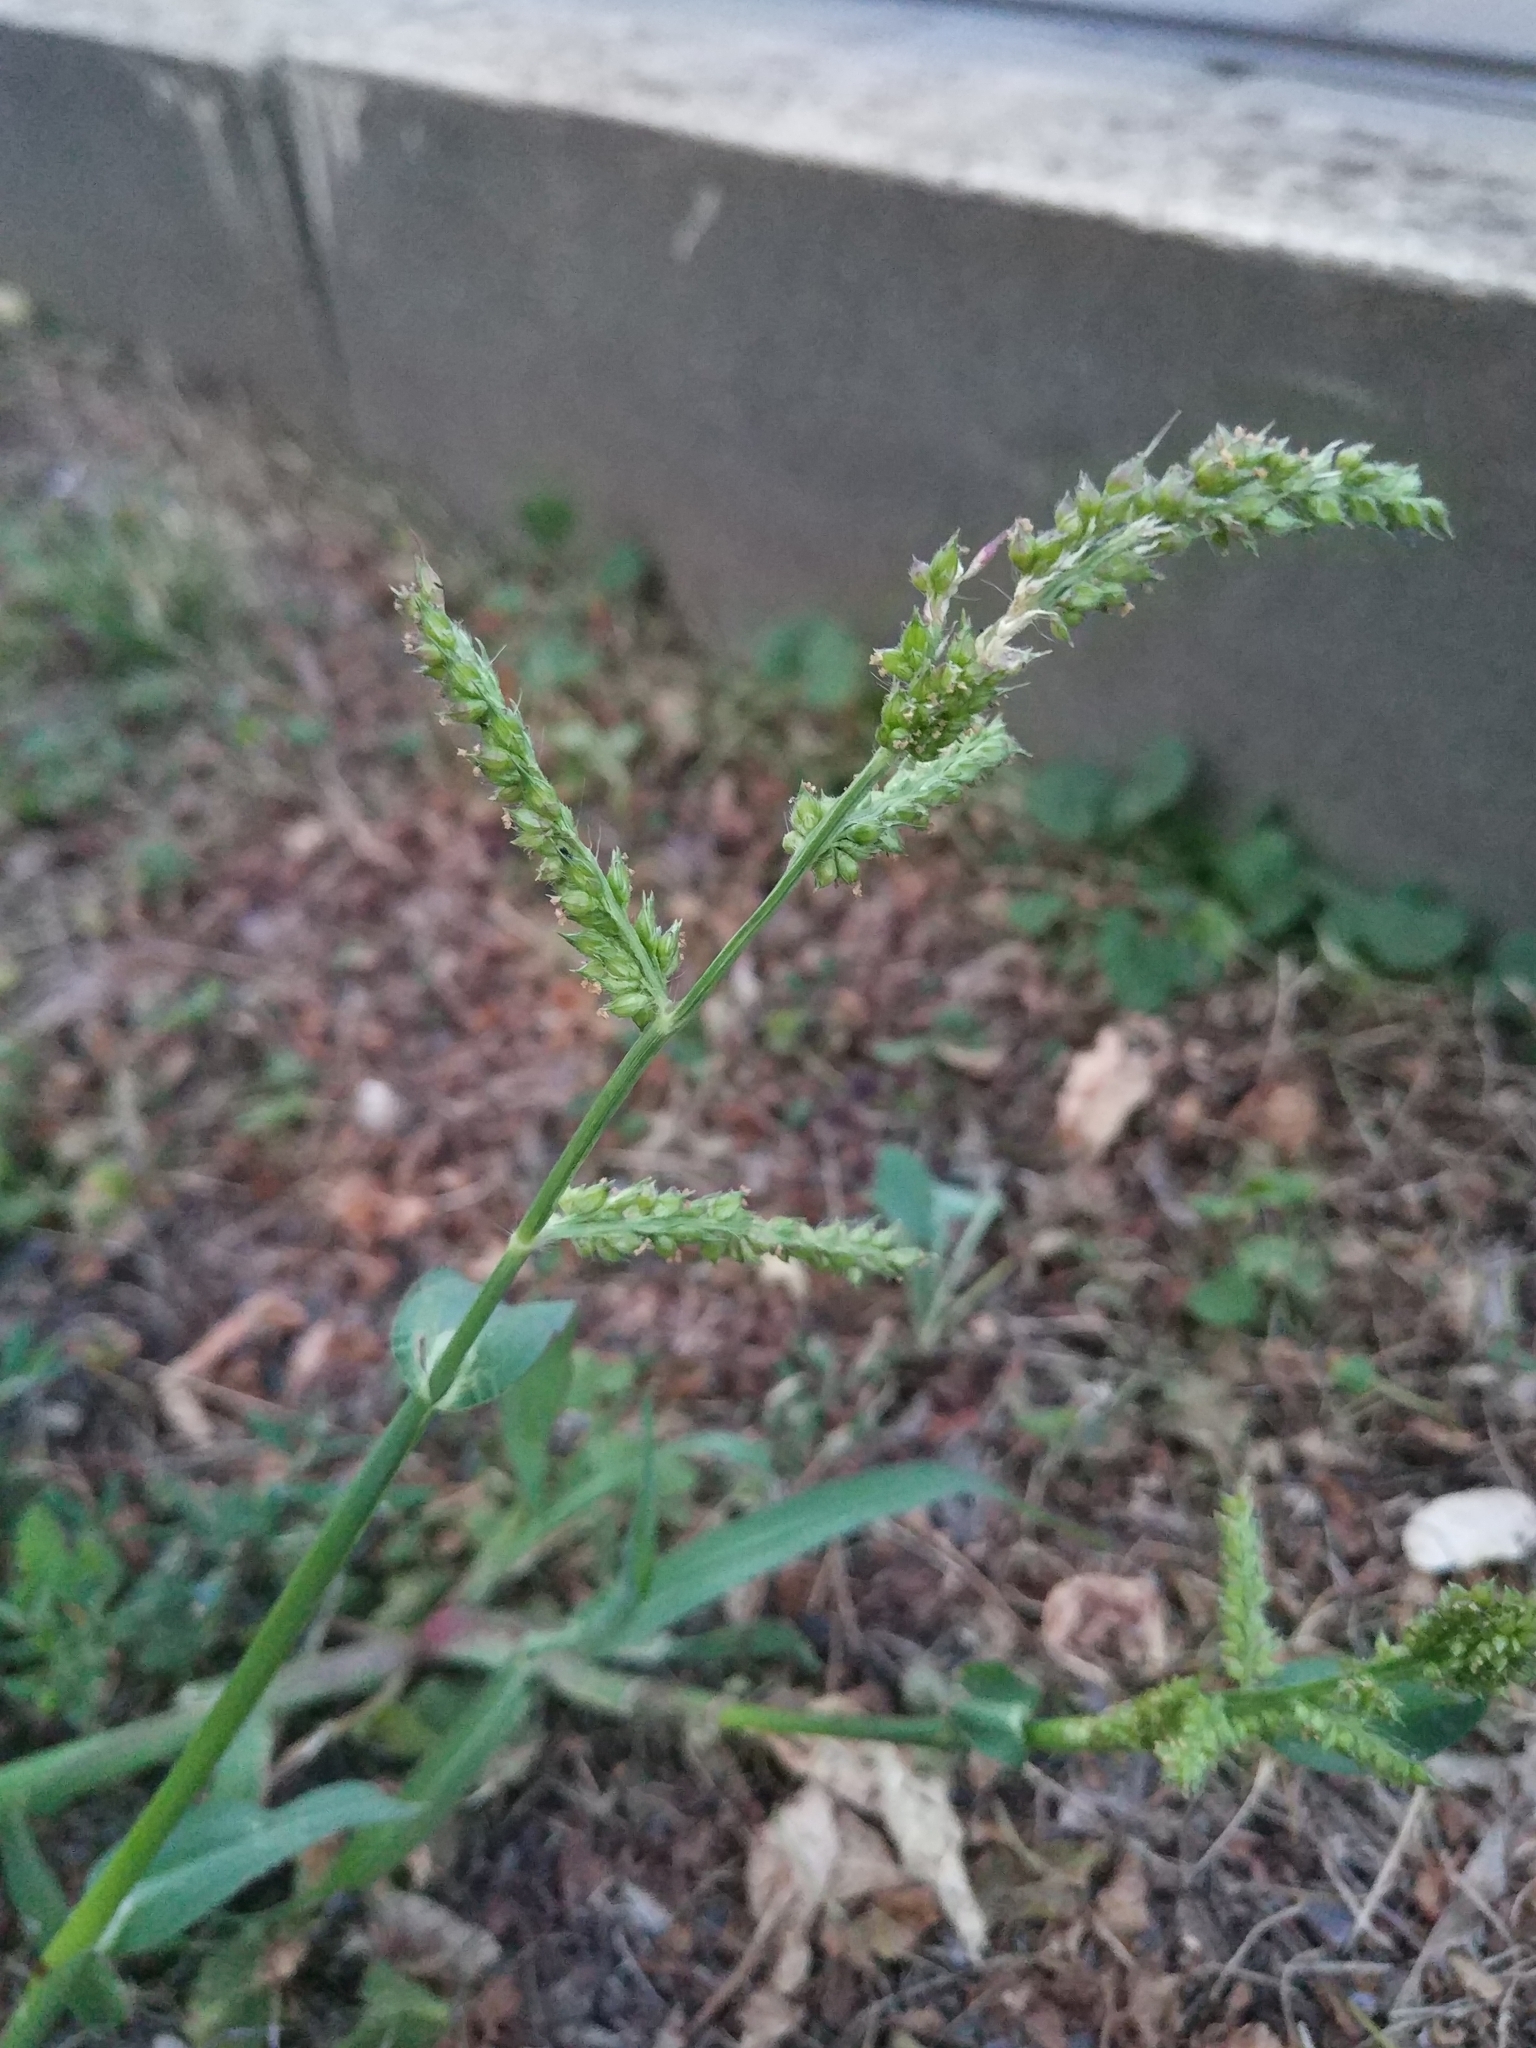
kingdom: Plantae
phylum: Tracheophyta
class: Liliopsida
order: Poales
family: Poaceae
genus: Echinochloa
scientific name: Echinochloa crus-galli
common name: Cockspur
